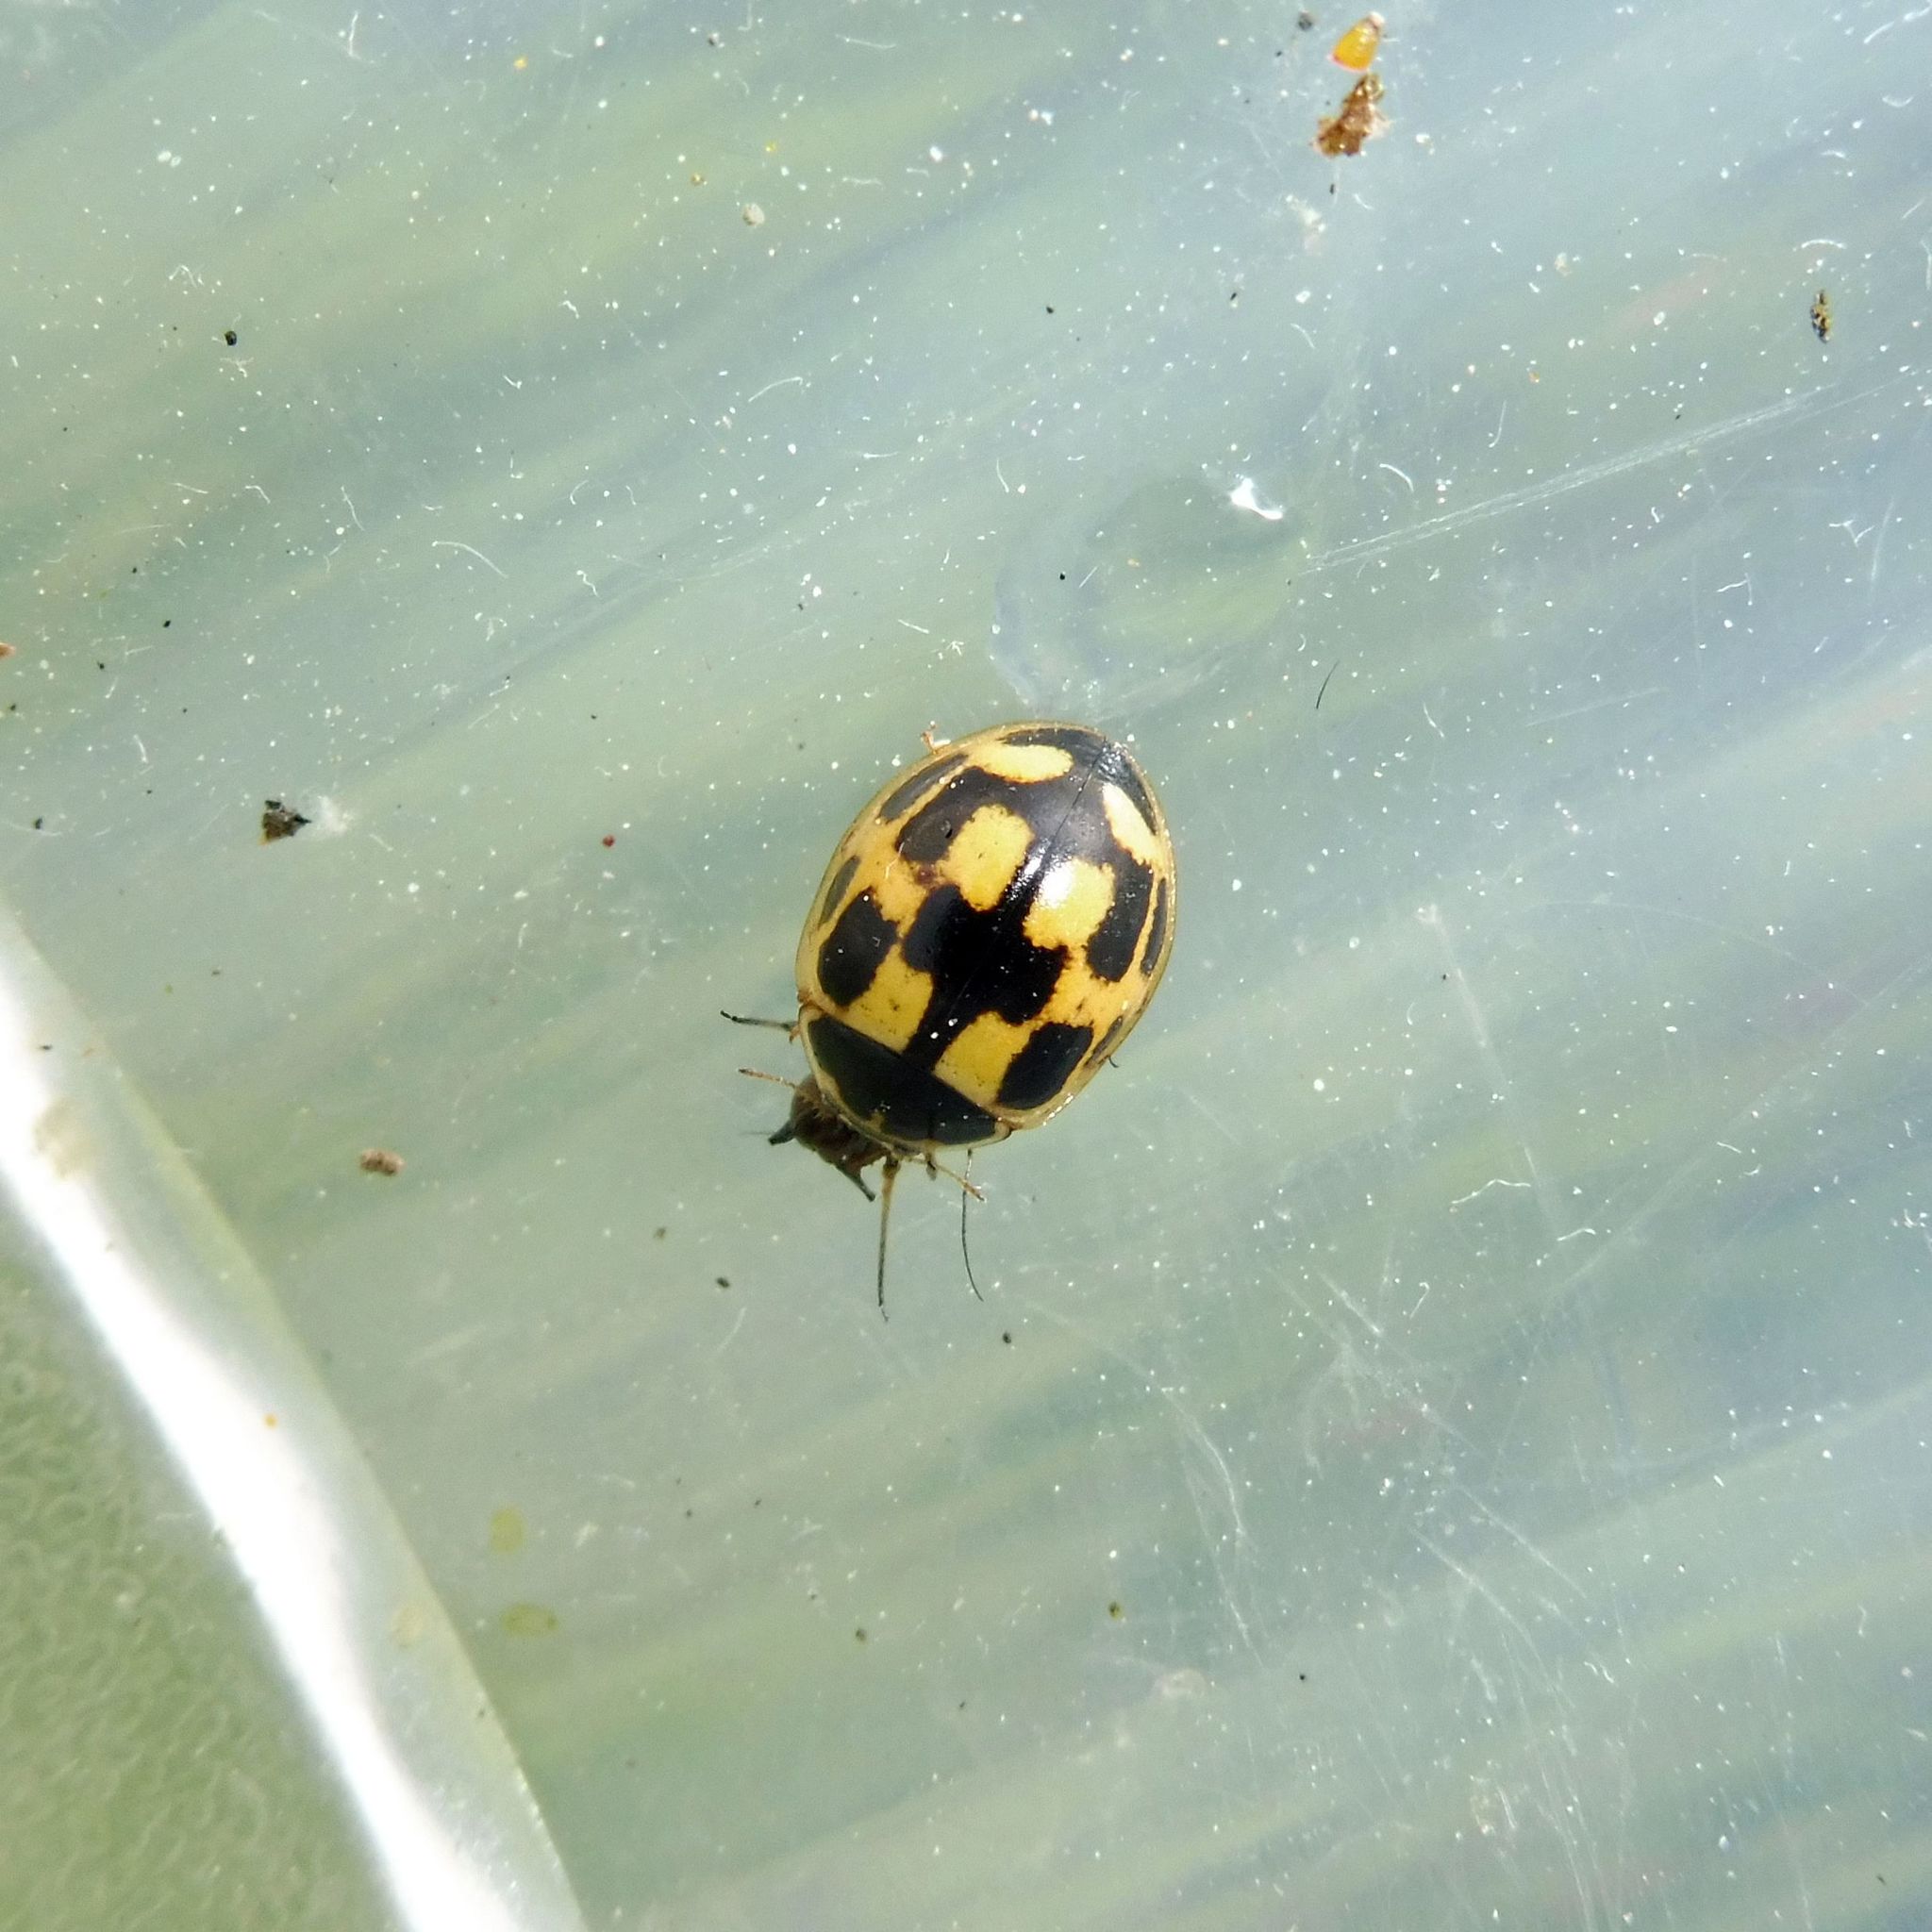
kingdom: Animalia
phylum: Arthropoda
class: Insecta
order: Coleoptera
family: Coccinellidae
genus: Propylaea
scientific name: Propylaea quatuordecimpunctata
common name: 14-spotted ladybird beetle
